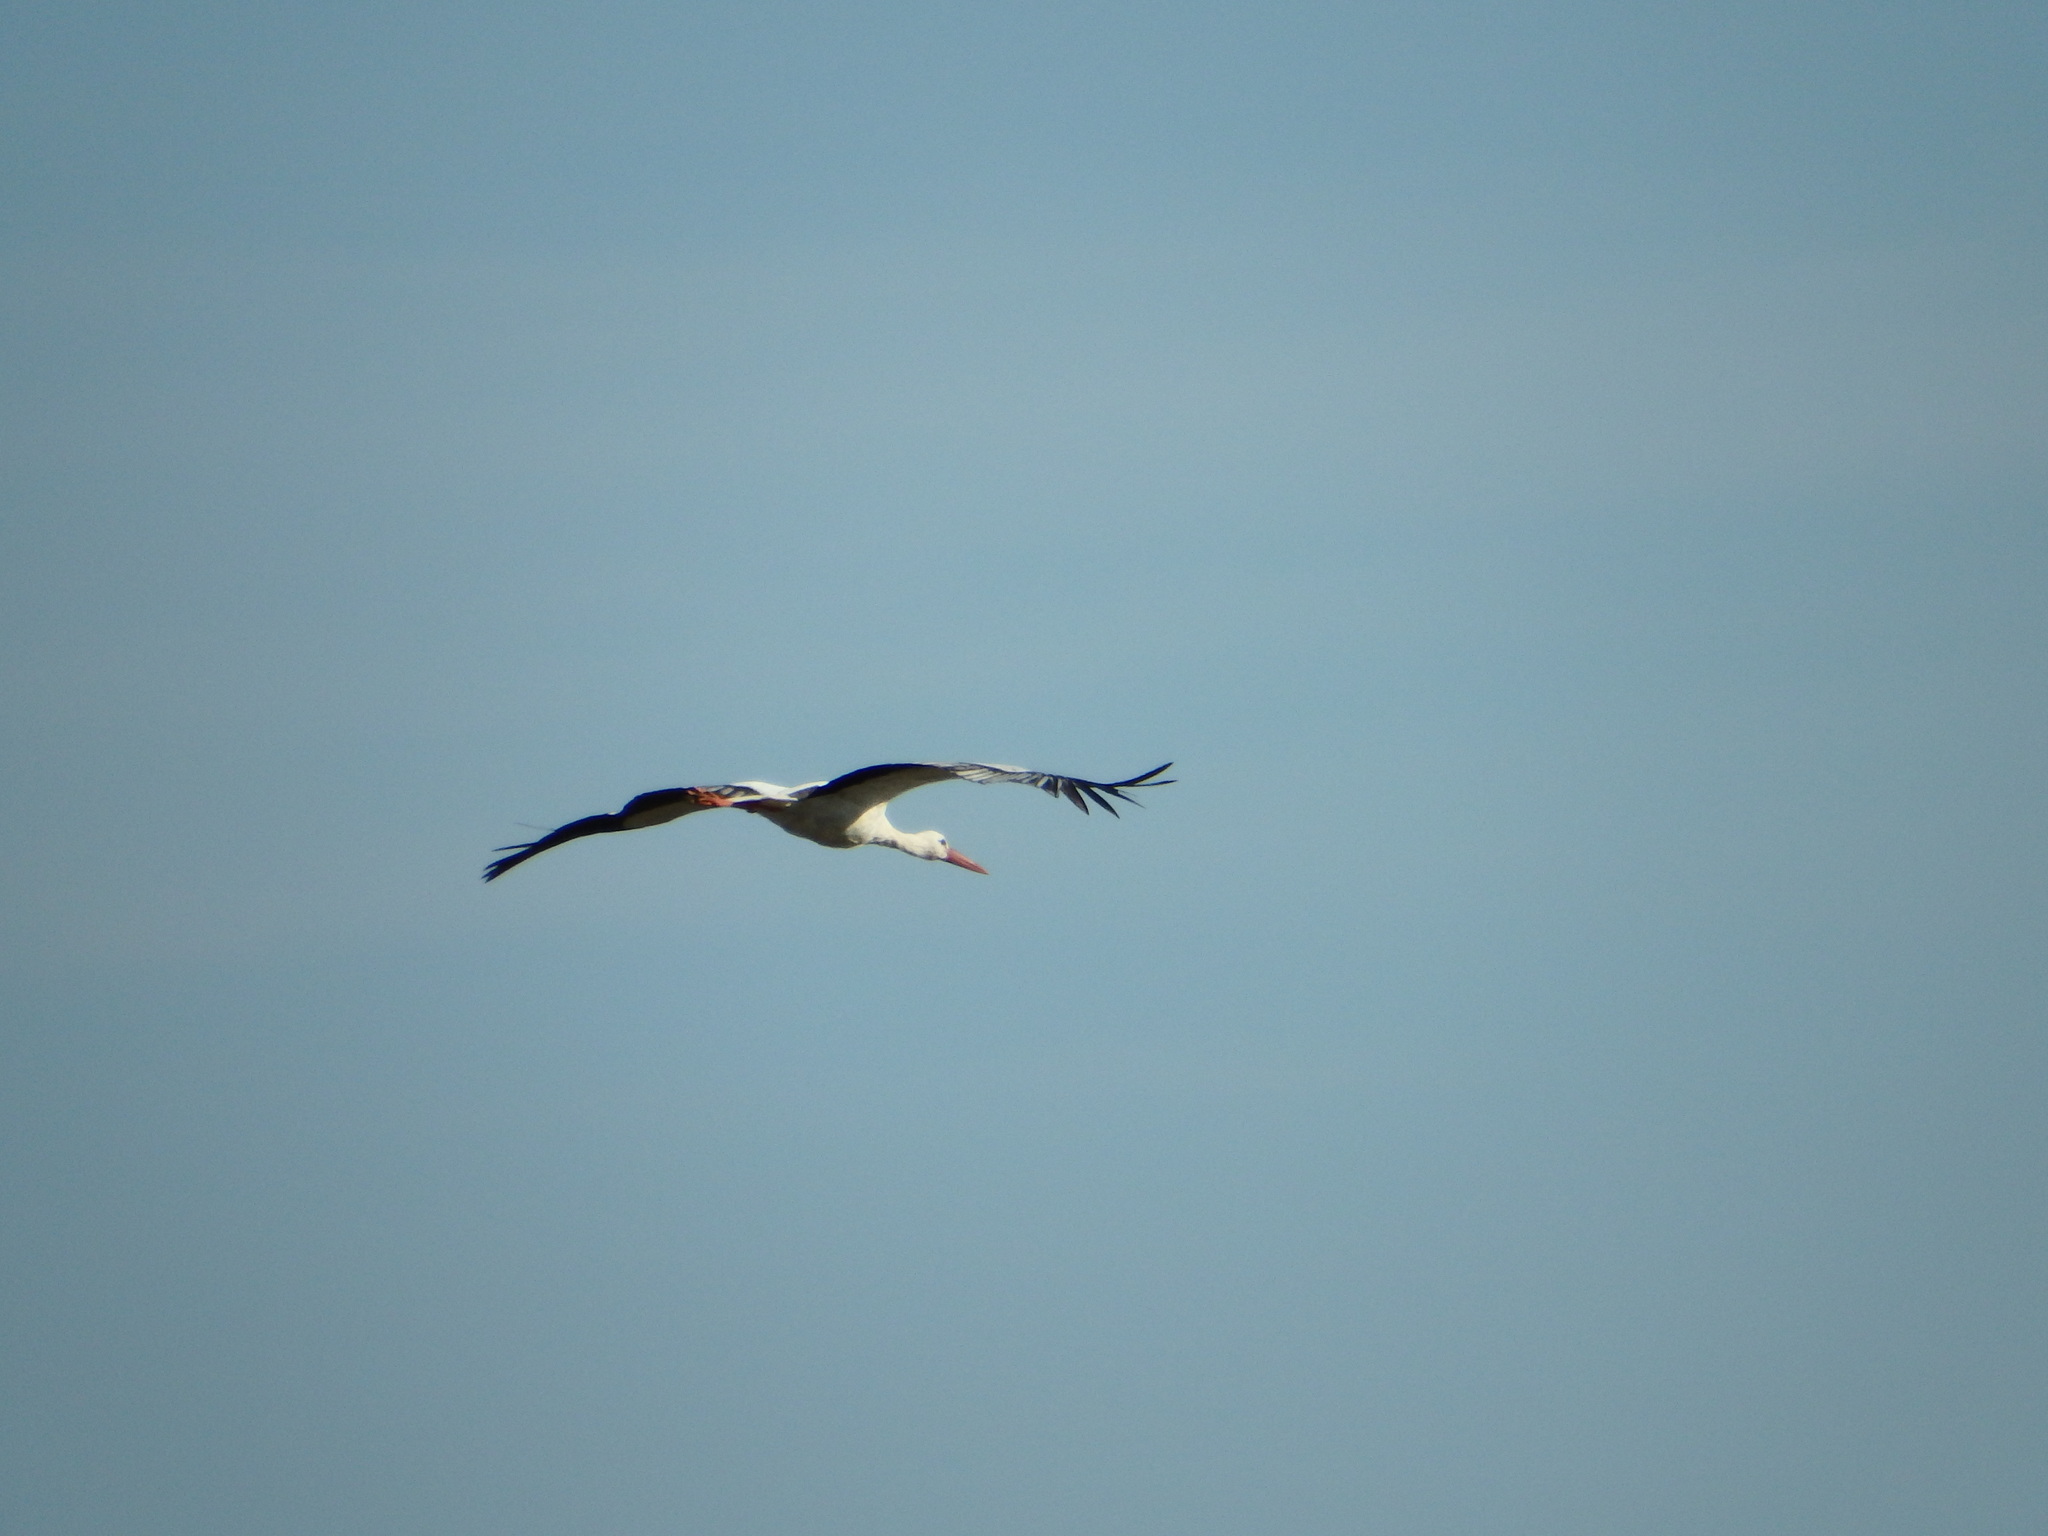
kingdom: Animalia
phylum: Chordata
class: Aves
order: Ciconiiformes
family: Ciconiidae
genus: Ciconia
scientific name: Ciconia ciconia
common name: White stork
